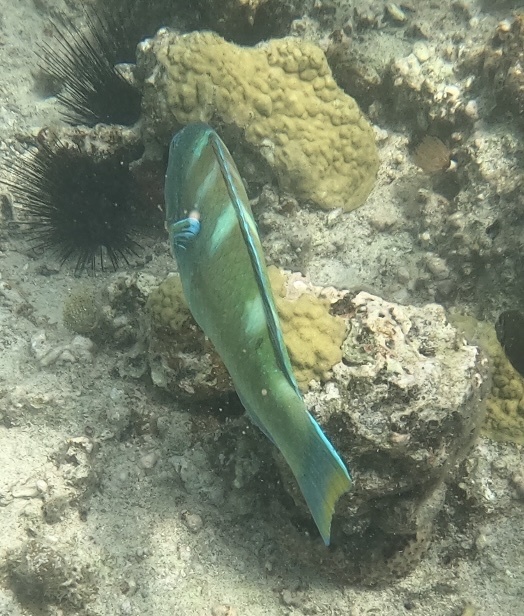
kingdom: Animalia
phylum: Chordata
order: Perciformes
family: Labridae
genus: Halichoeres
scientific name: Halichoeres radiatus
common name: Puddingwife
